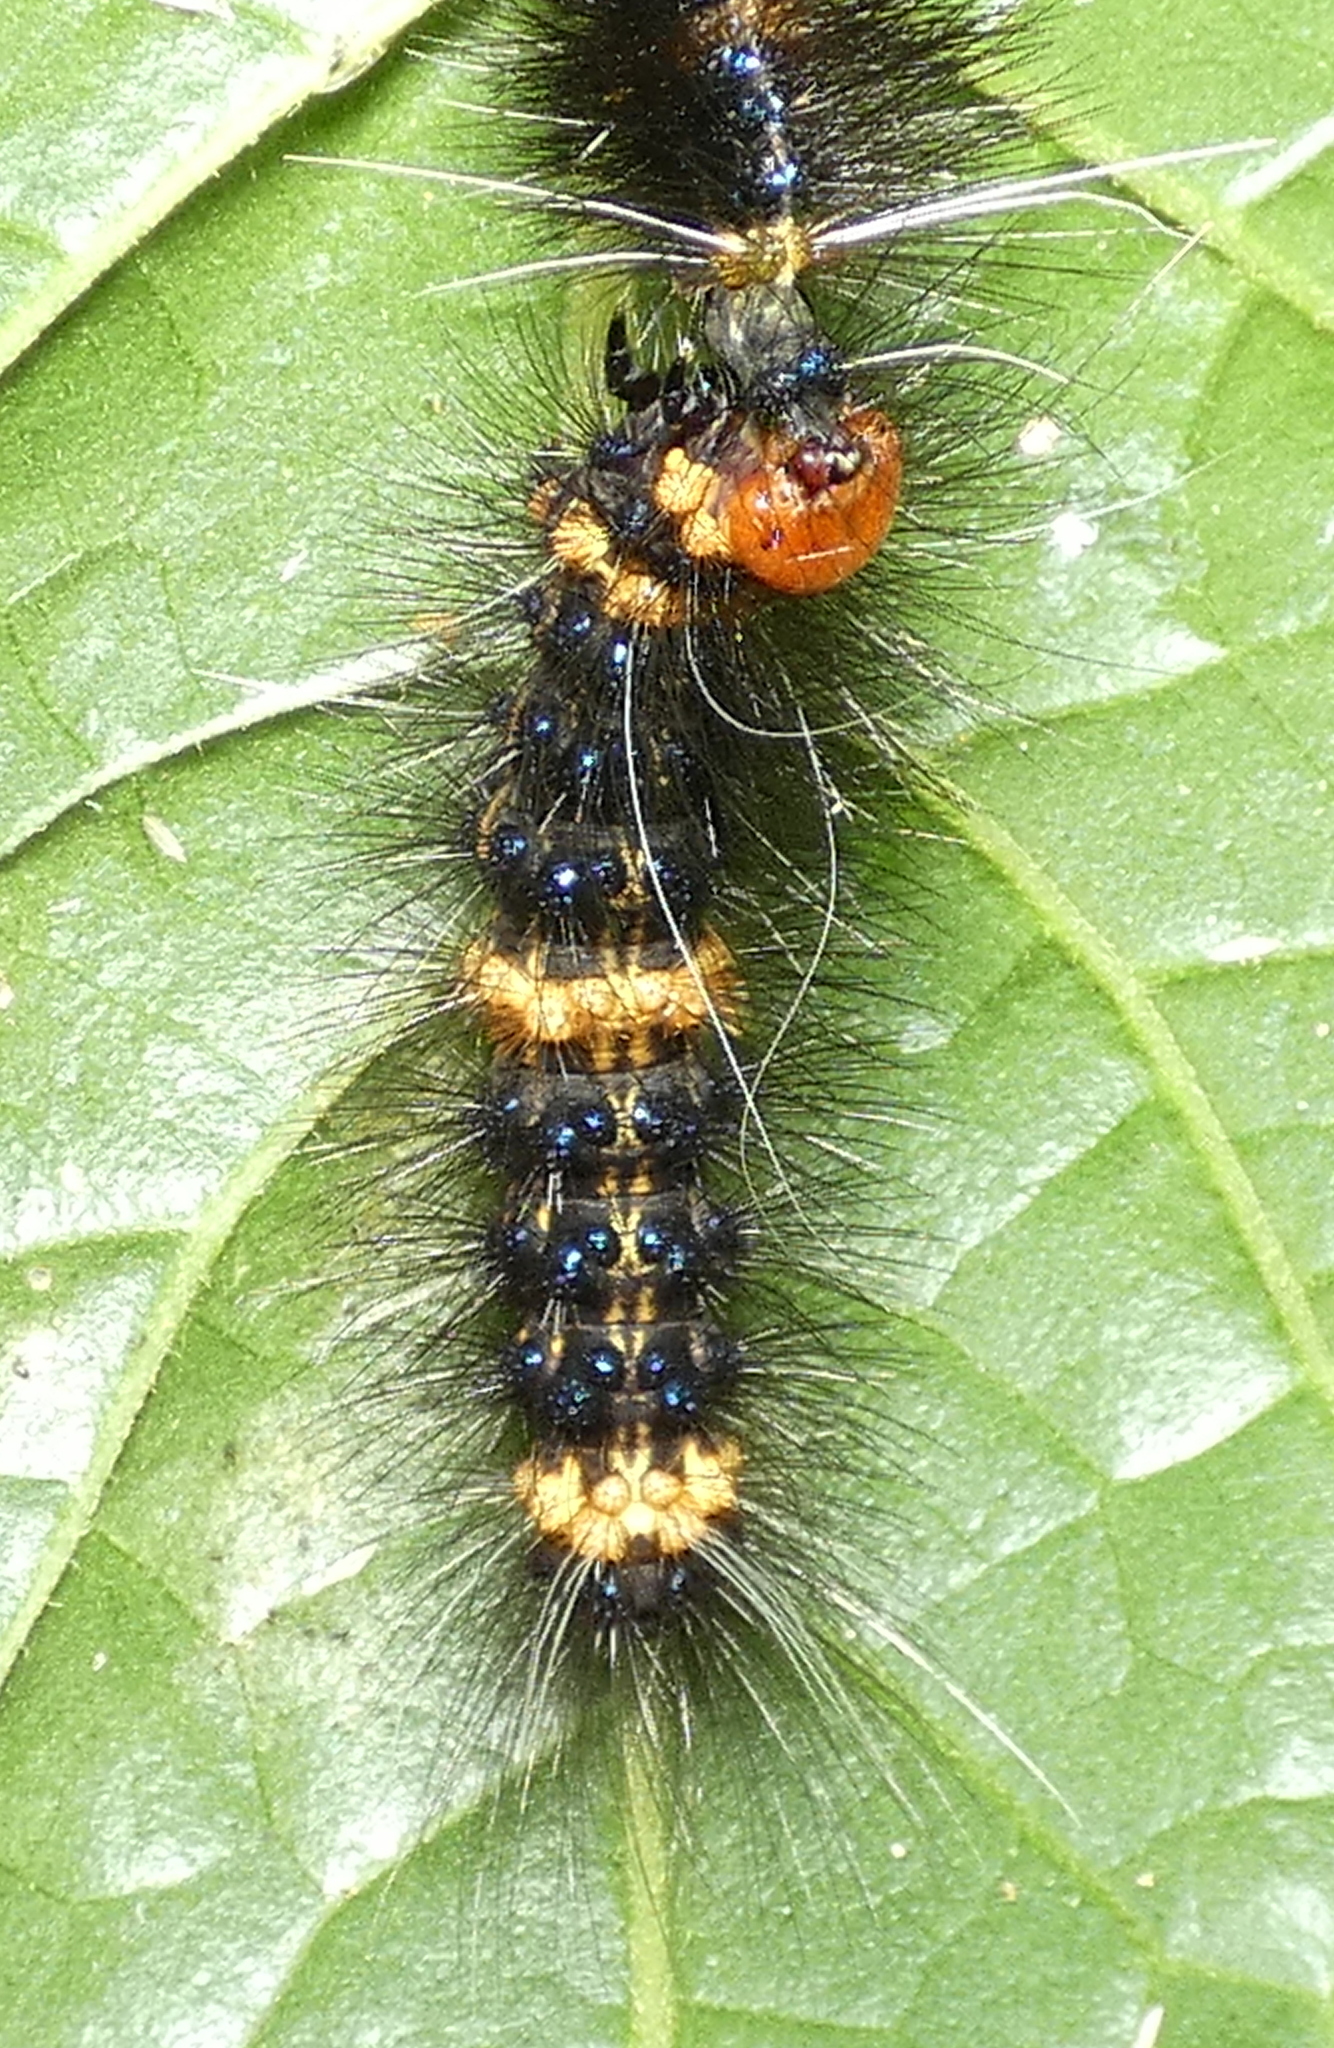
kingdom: Animalia
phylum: Arthropoda
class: Insecta
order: Lepidoptera
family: Erebidae
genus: Dysschema
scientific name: Dysschema tricolora
